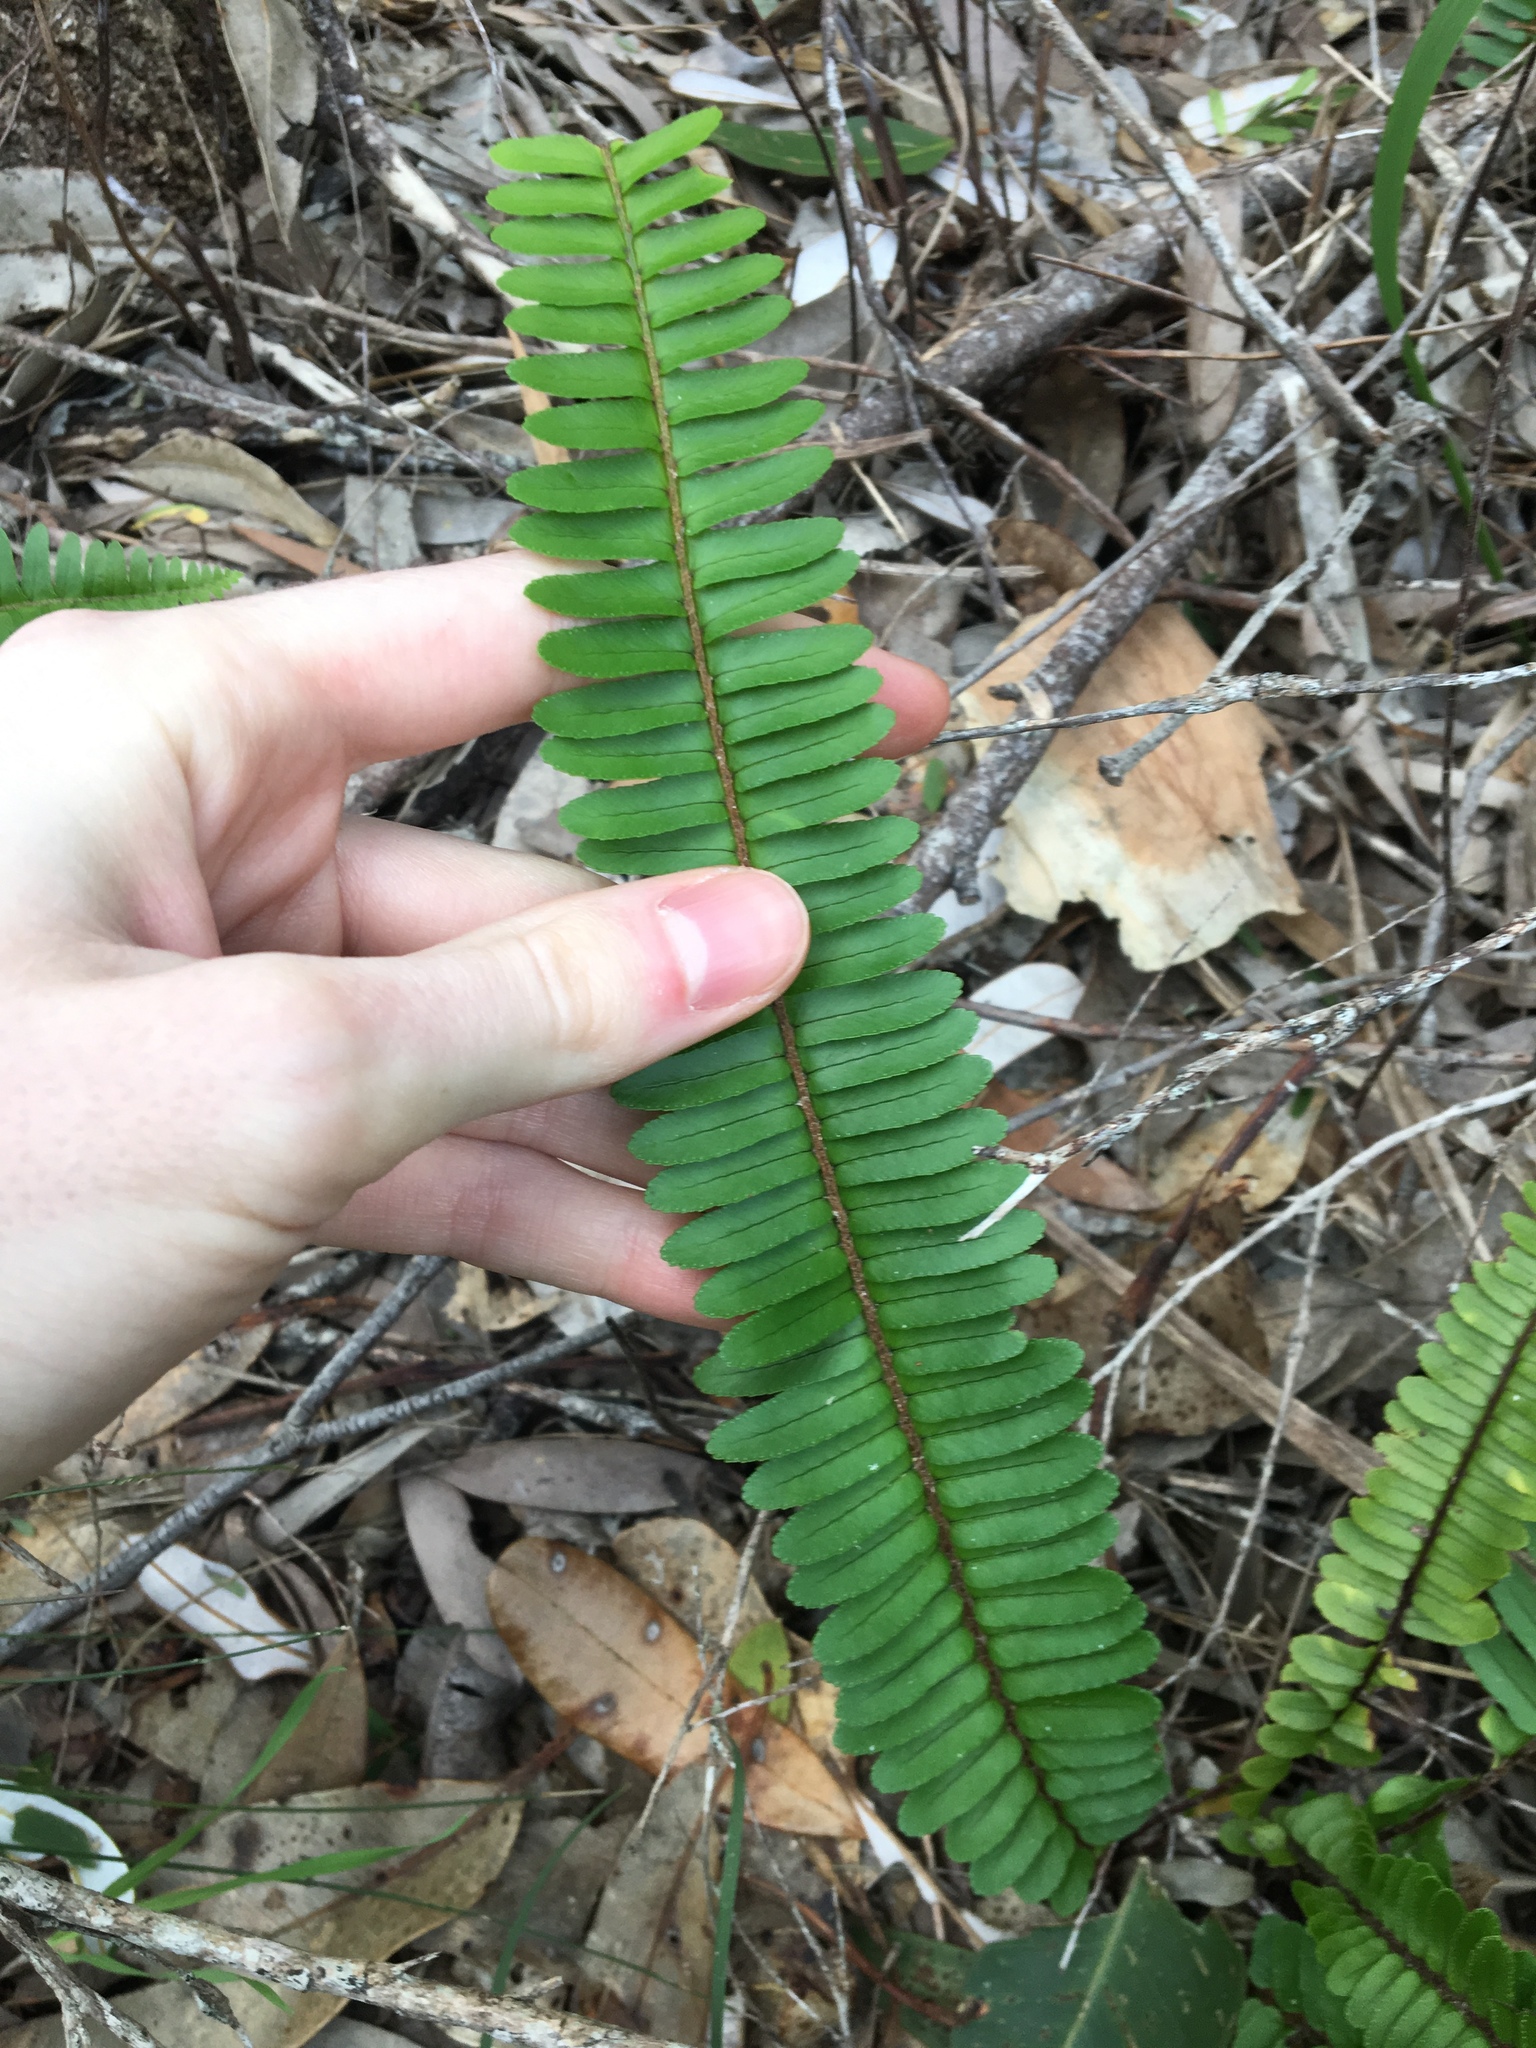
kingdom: Plantae
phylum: Tracheophyta
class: Polypodiopsida
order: Polypodiales
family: Nephrolepidaceae
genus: Nephrolepis
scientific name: Nephrolepis cordifolia
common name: Narrow swordfern
